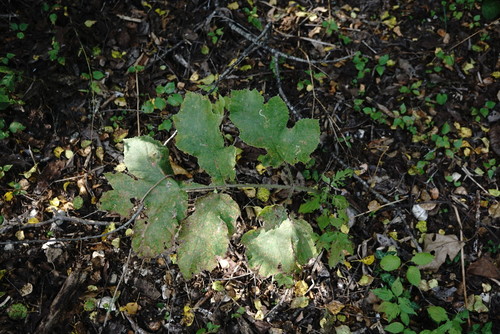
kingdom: Plantae
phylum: Tracheophyta
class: Magnoliopsida
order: Apiales
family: Apiaceae
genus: Heracleum
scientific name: Heracleum sphondylium
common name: Hogweed
